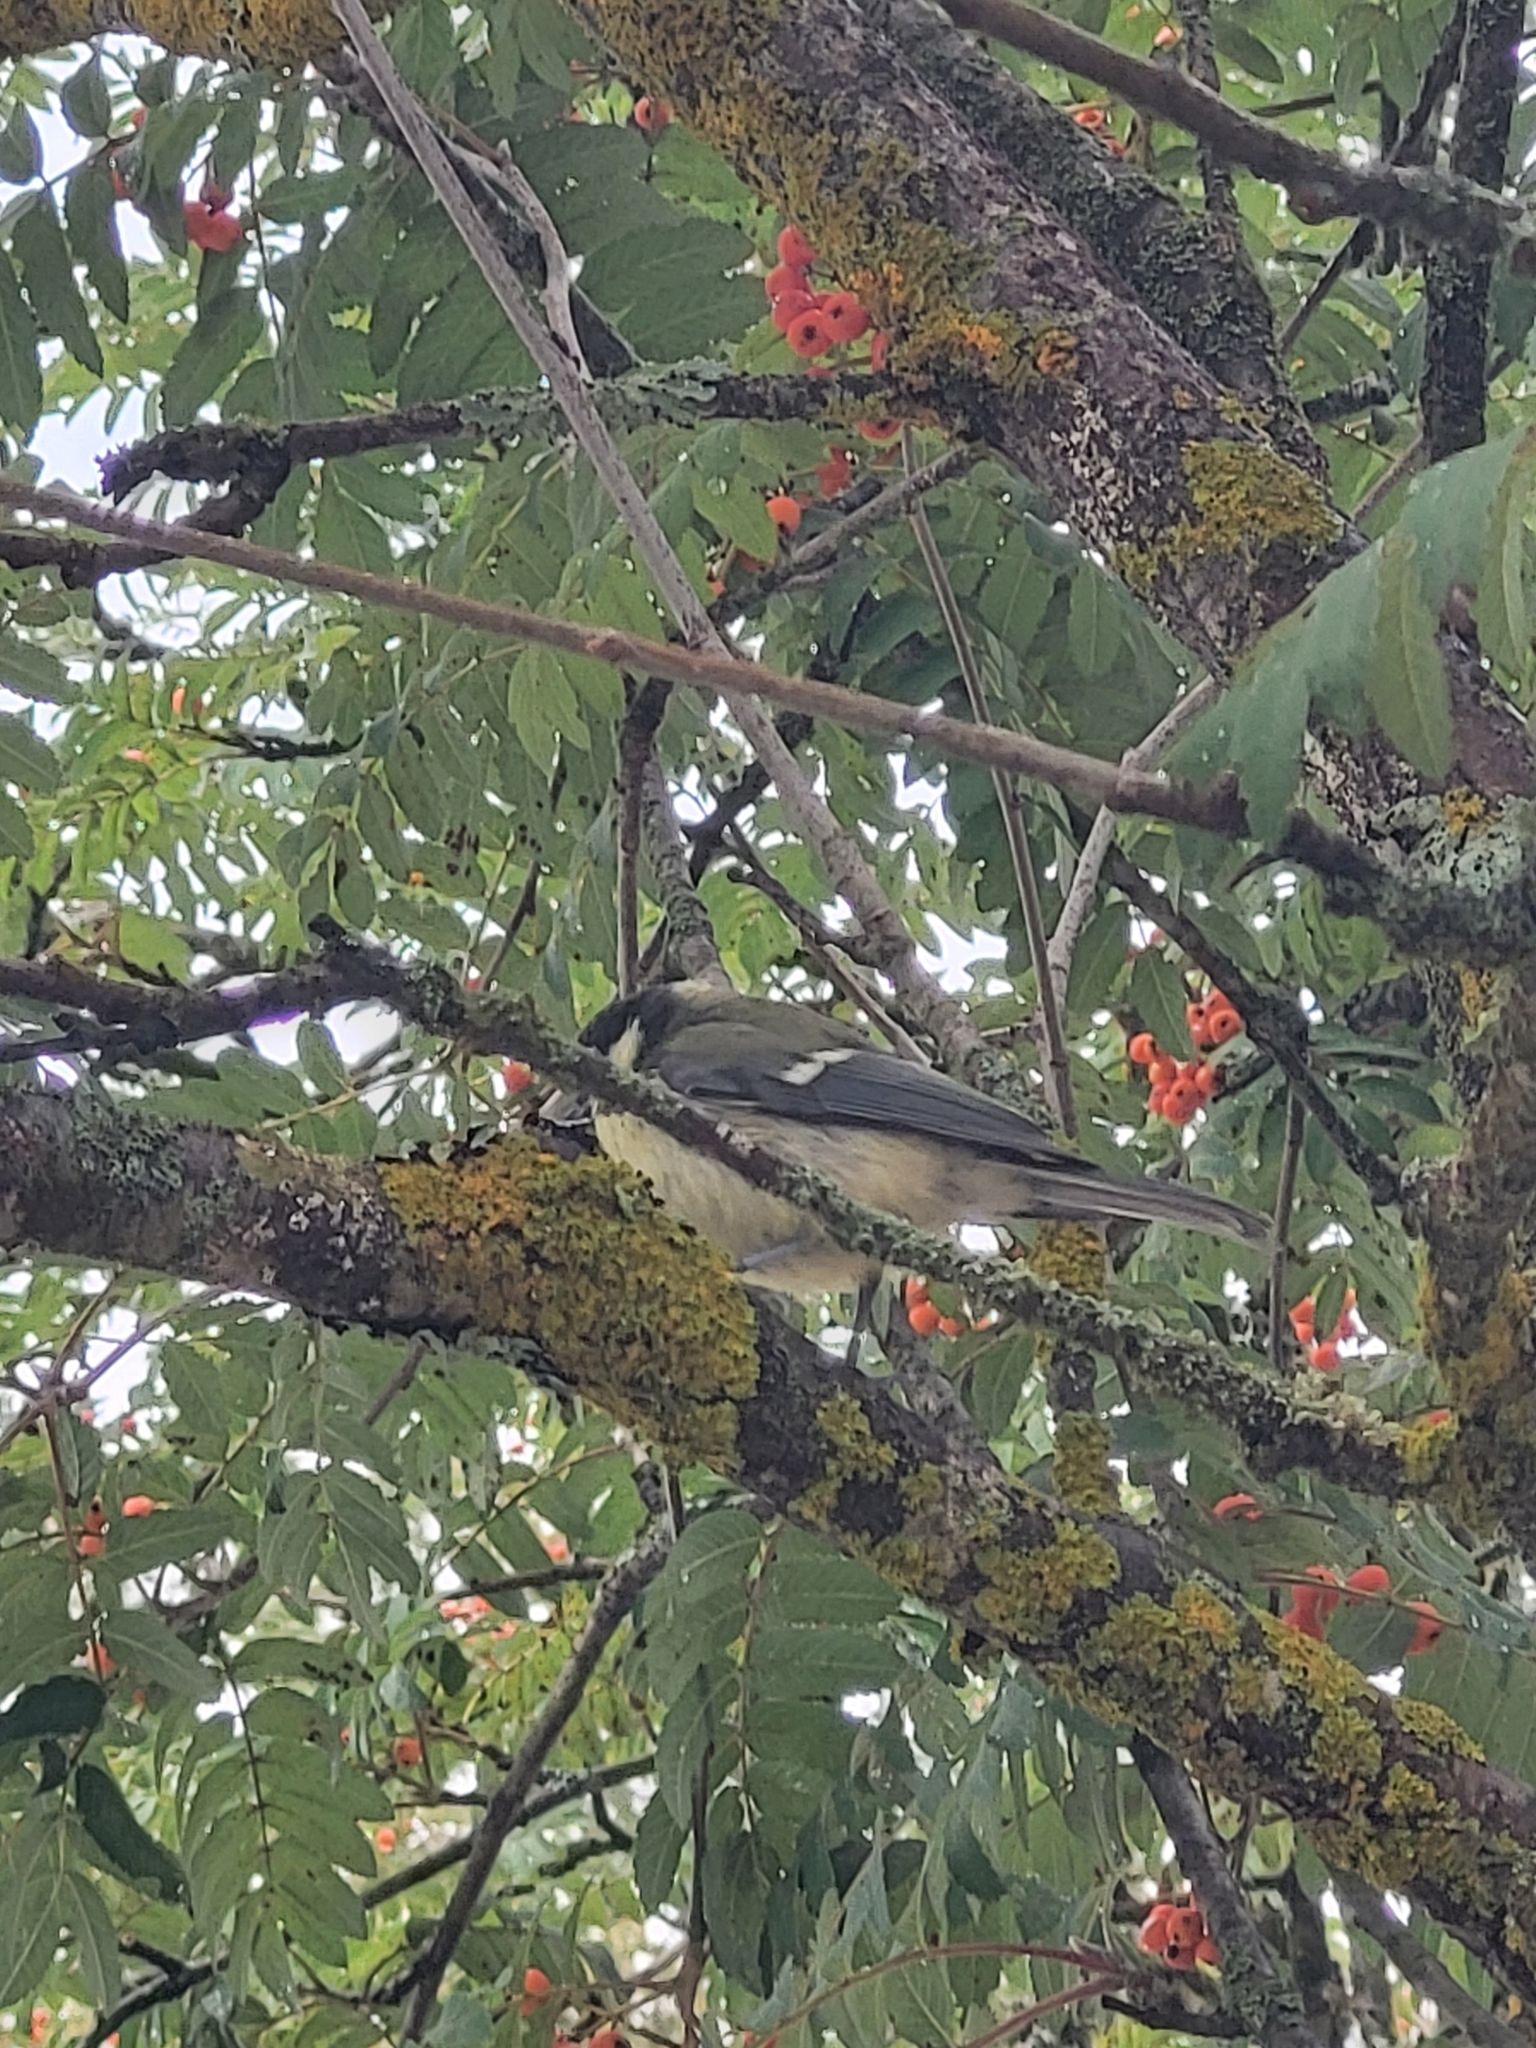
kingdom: Animalia
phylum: Chordata
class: Aves
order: Passeriformes
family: Paridae
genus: Parus
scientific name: Parus major
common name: Great tit
